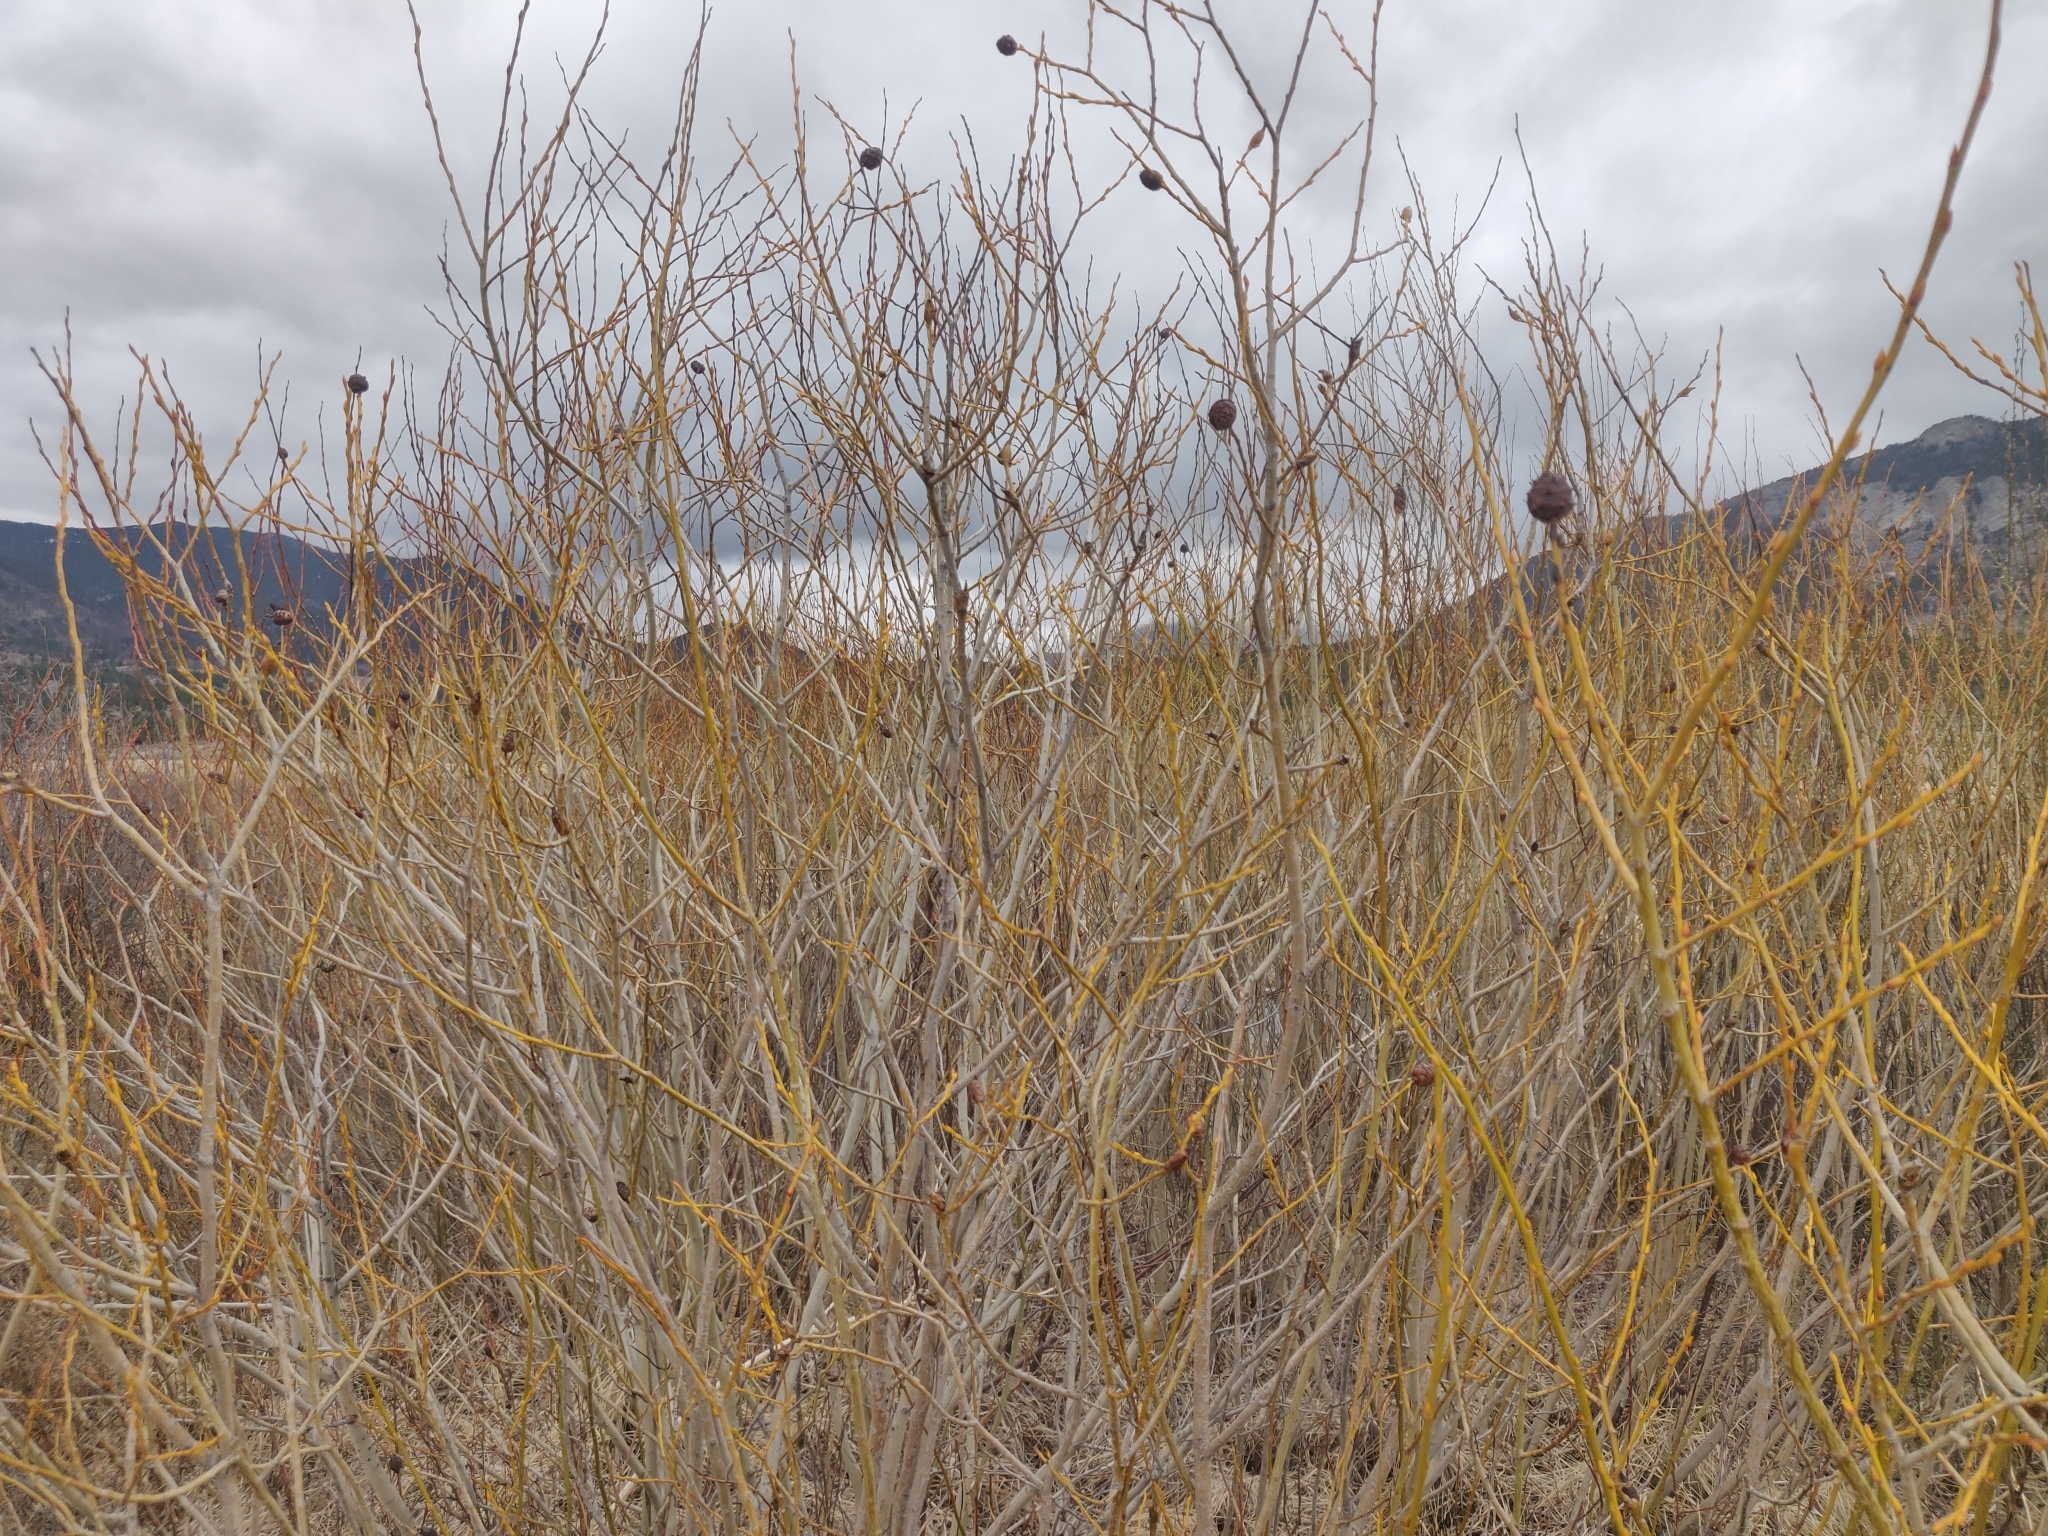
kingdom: Animalia
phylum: Arthropoda
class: Insecta
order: Diptera
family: Cecidomyiidae
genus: Rabdophaga
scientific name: Rabdophaga strobiloides
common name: Willow pinecone gall midge
